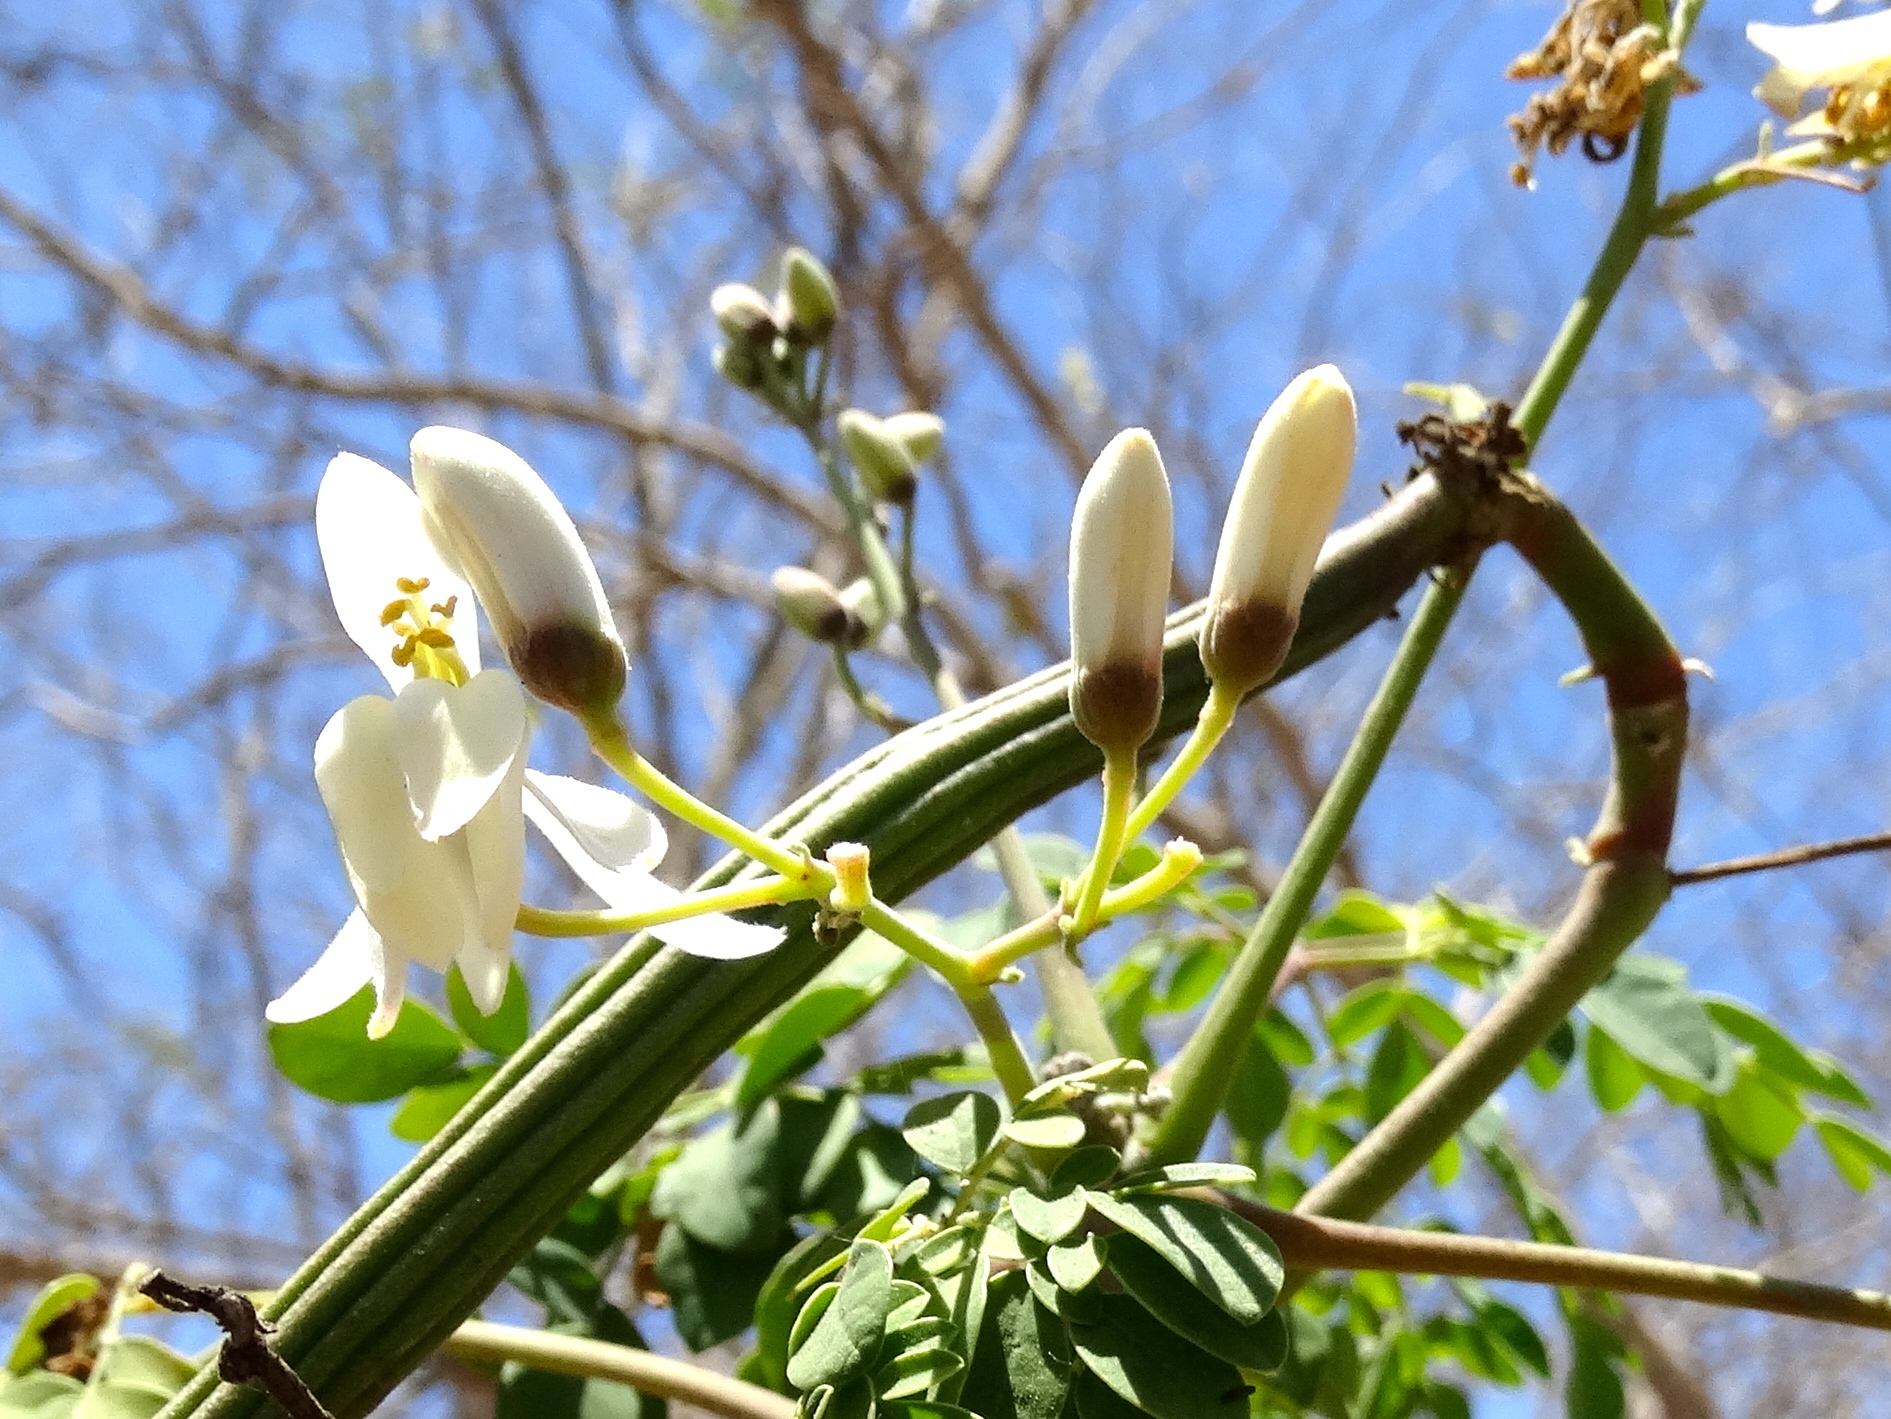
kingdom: Plantae
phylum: Tracheophyta
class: Magnoliopsida
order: Brassicales
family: Moringaceae
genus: Moringa
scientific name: Moringa oleifera
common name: Horseradish-tree
